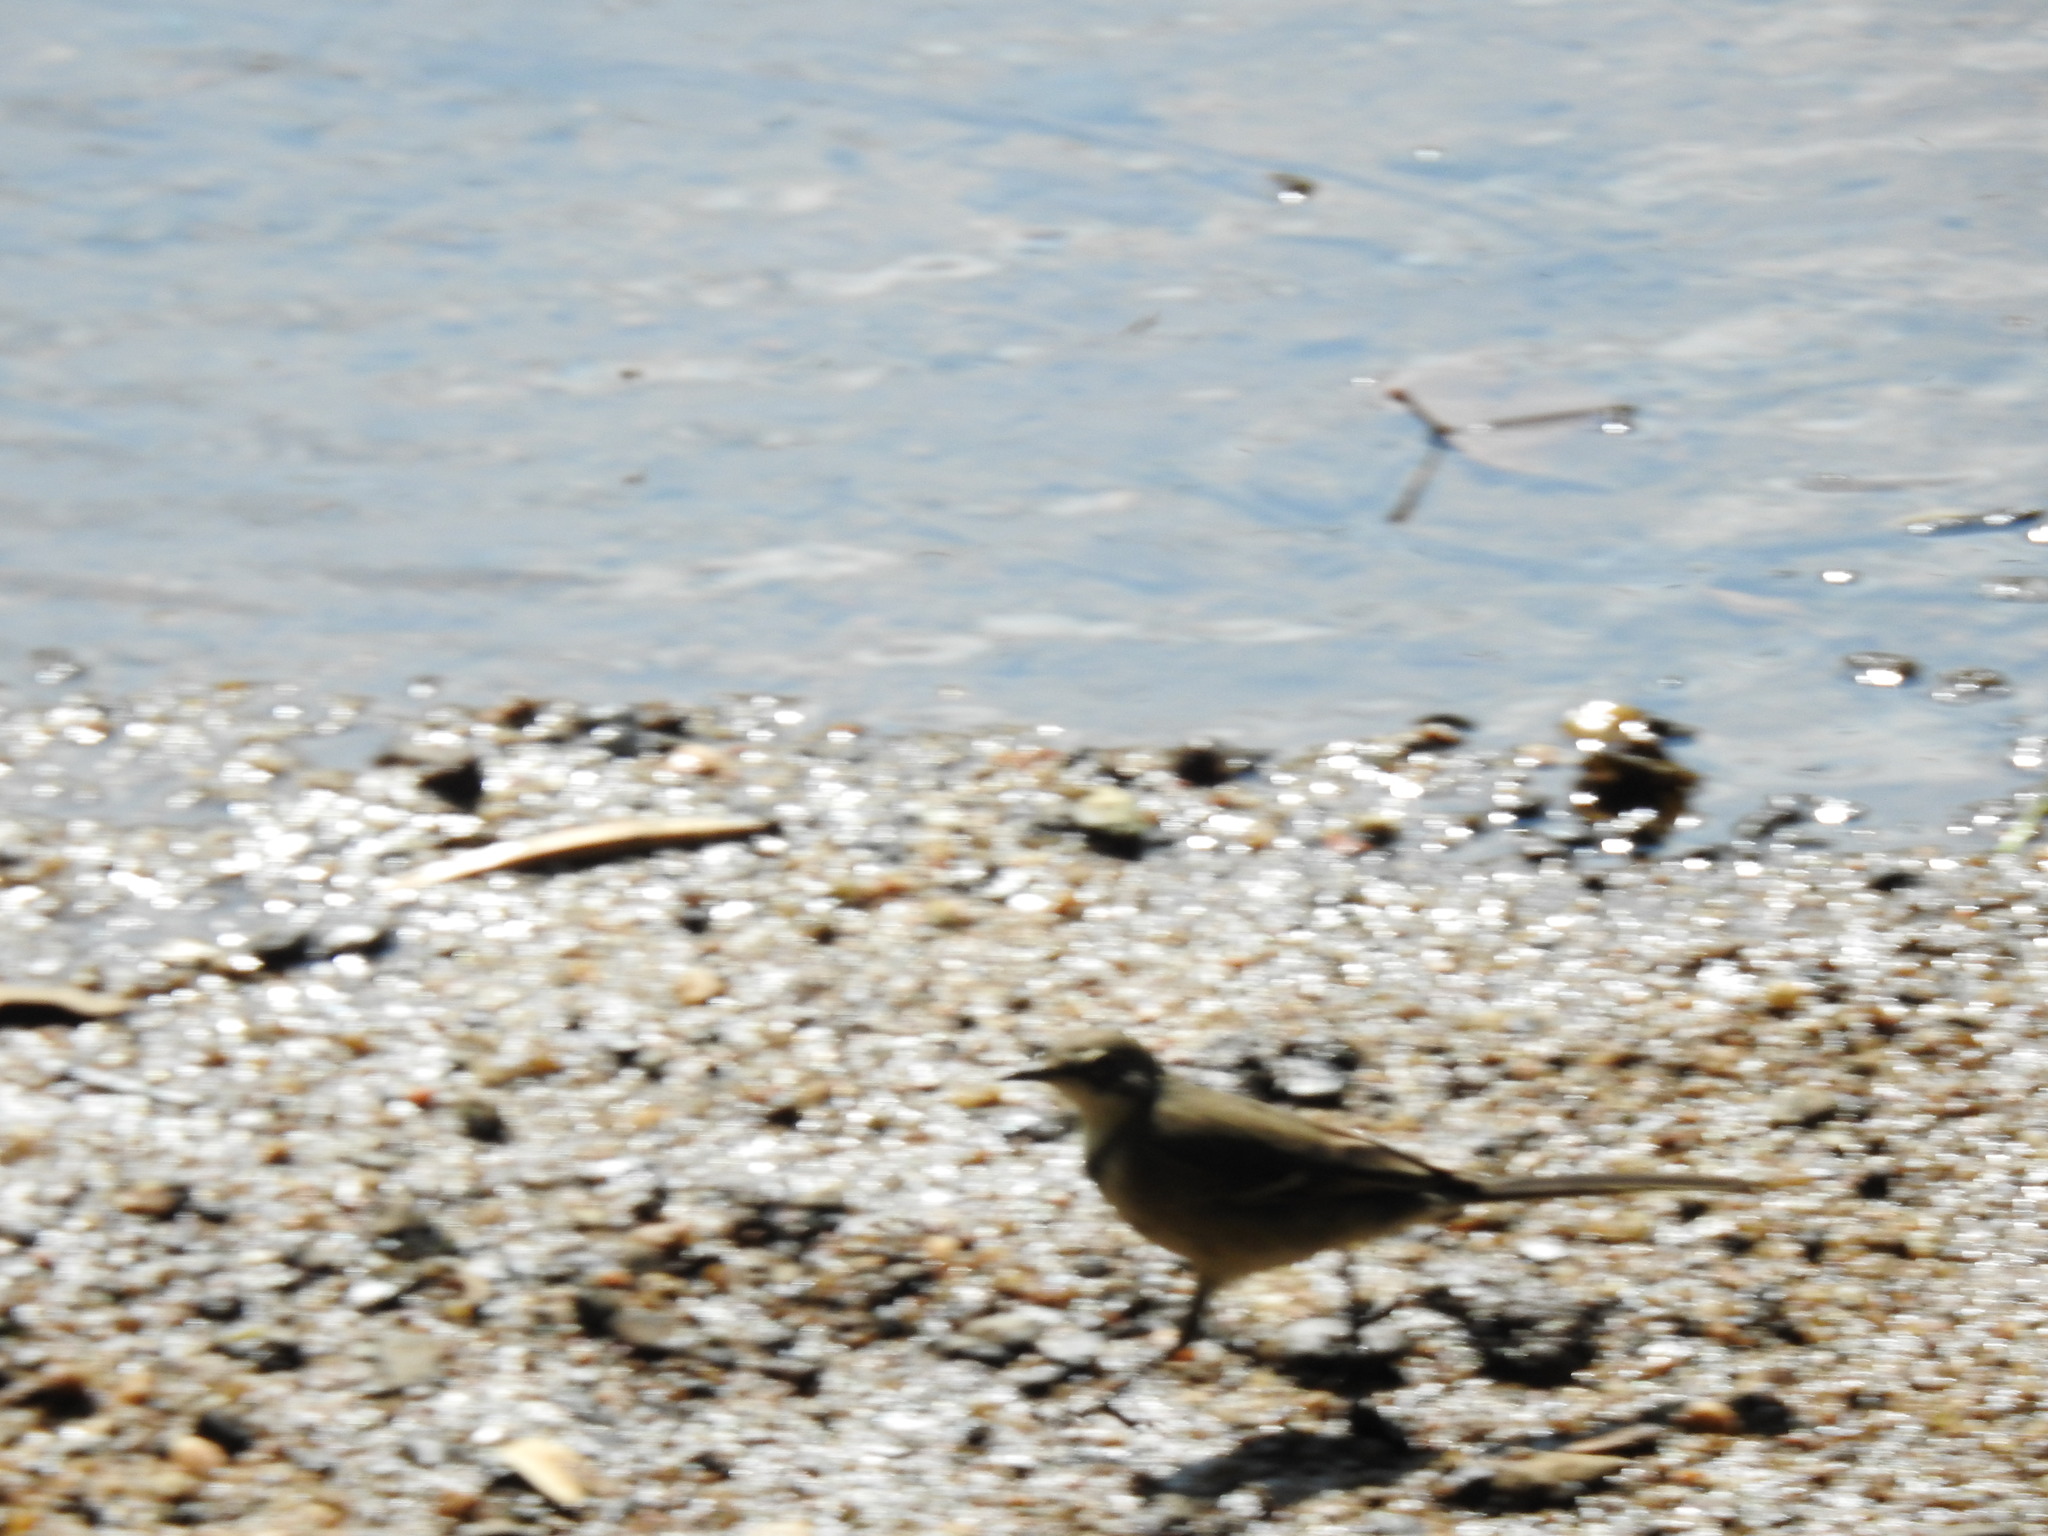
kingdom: Animalia
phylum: Chordata
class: Aves
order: Passeriformes
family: Motacillidae
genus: Motacilla
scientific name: Motacilla capensis
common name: Cape wagtail
